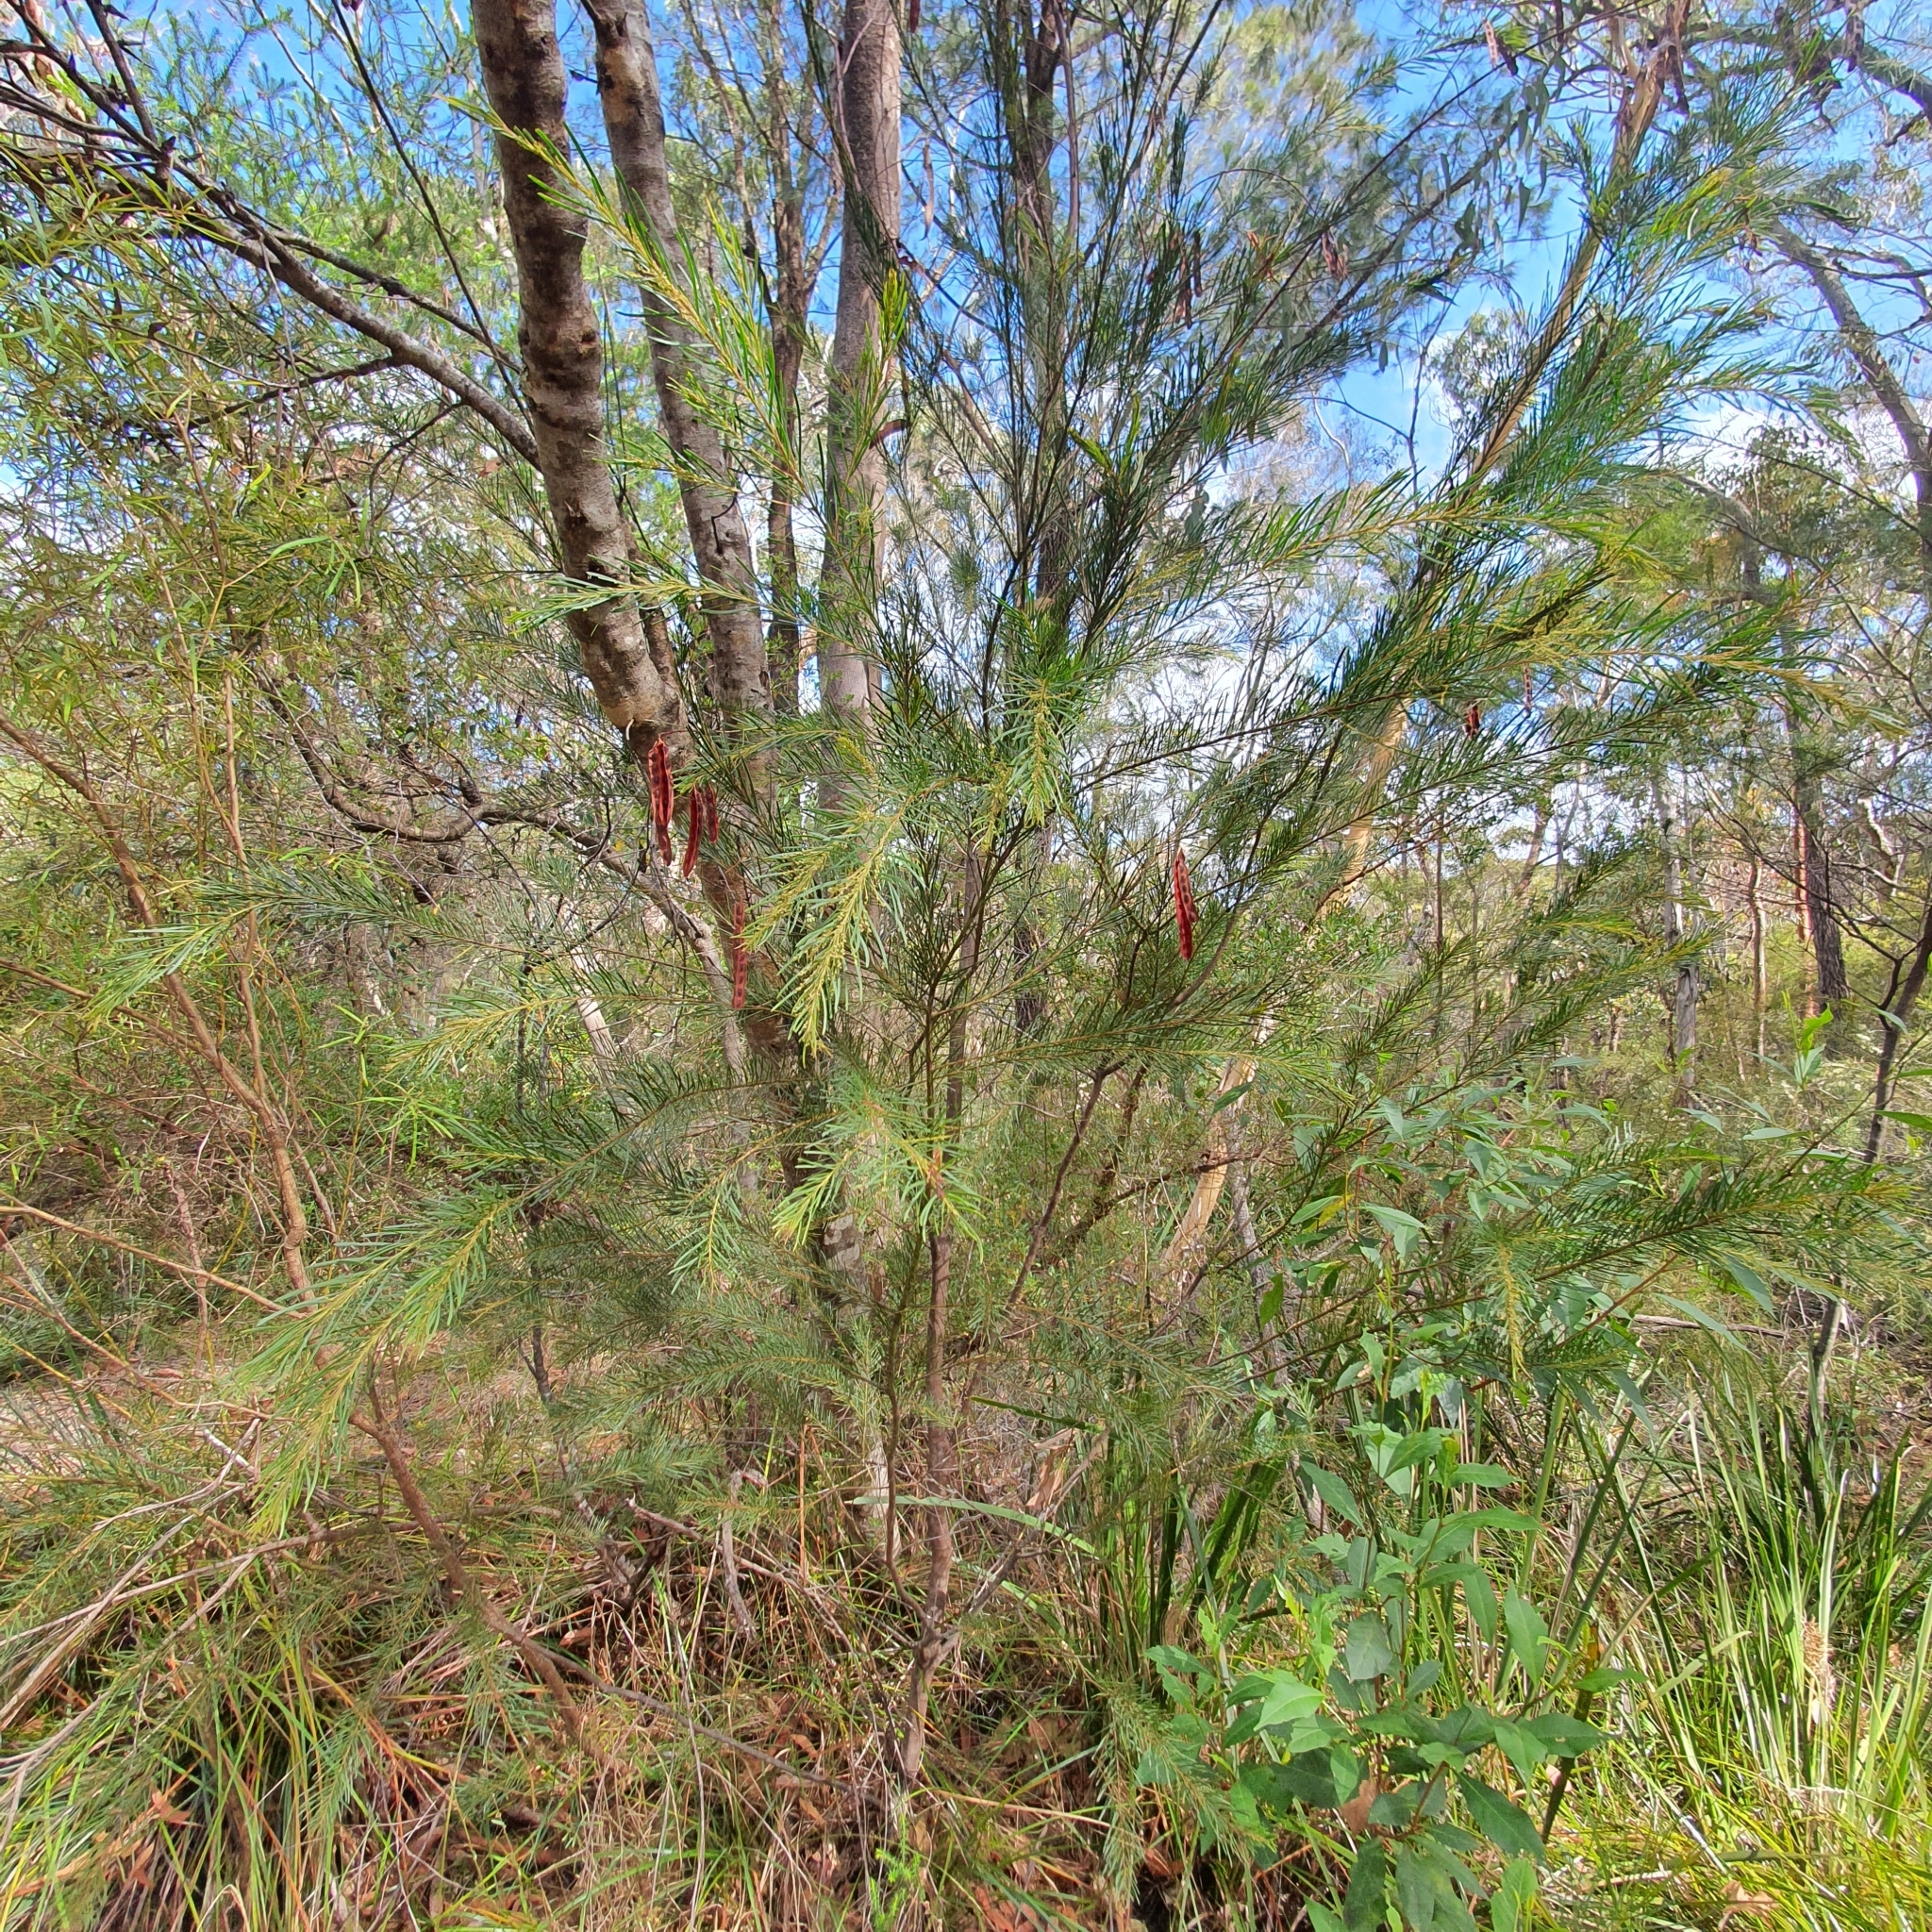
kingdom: Plantae
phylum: Tracheophyta
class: Magnoliopsida
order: Fabales
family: Fabaceae
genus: Acacia
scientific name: Acacia linifolia
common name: White wattle
